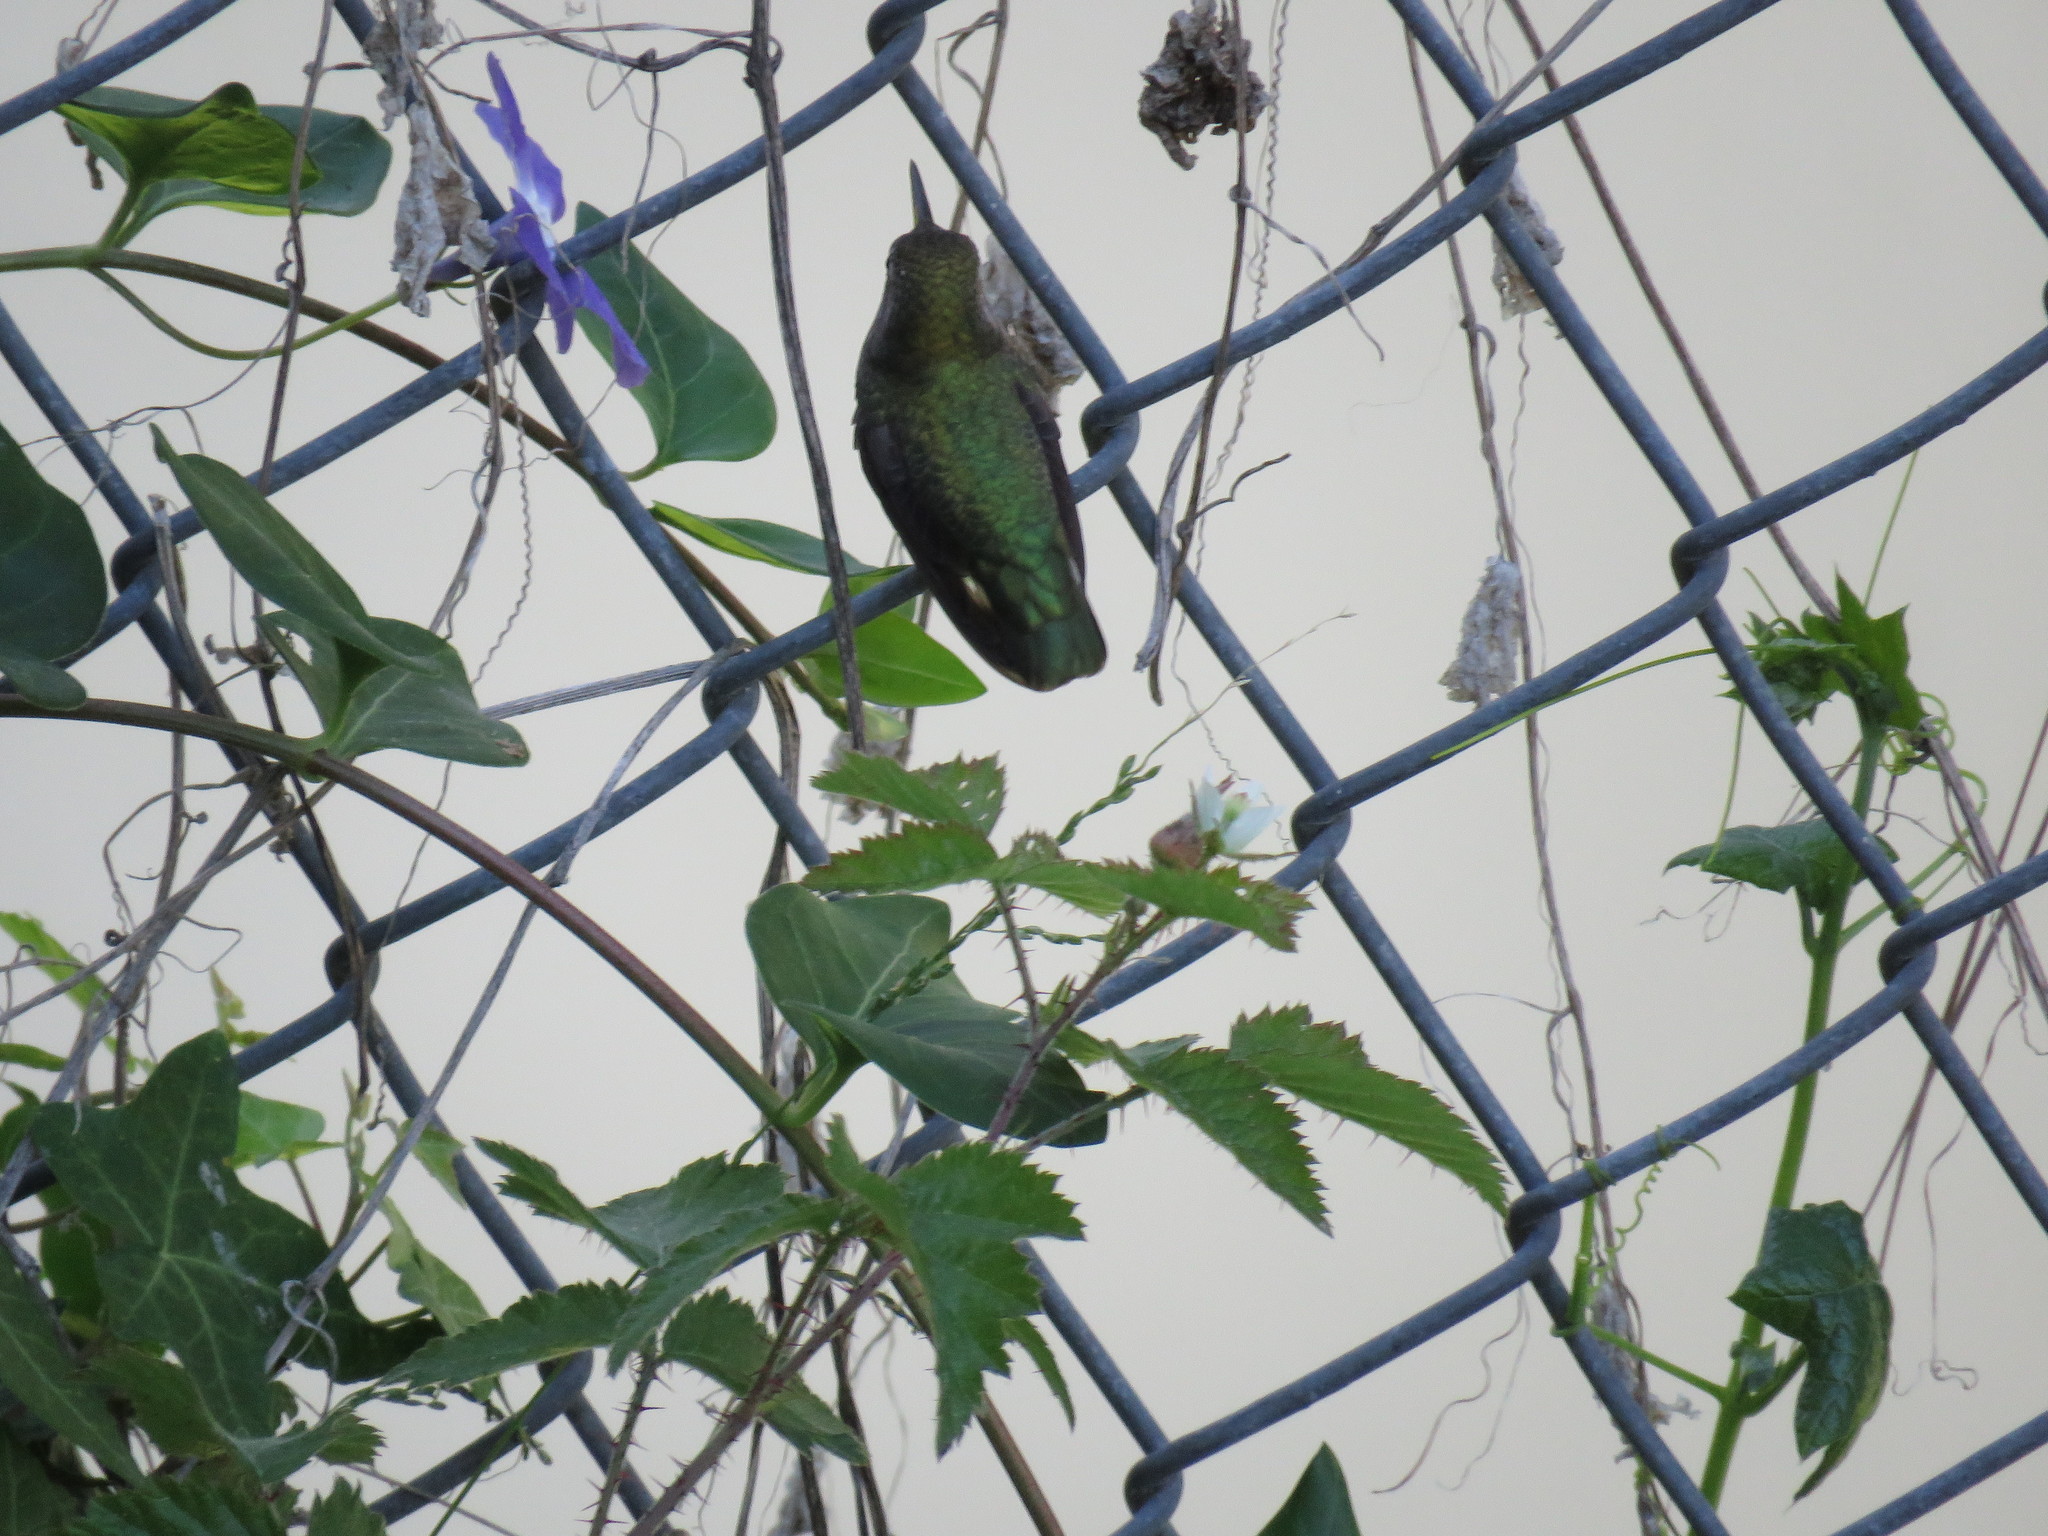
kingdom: Animalia
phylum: Chordata
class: Aves
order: Apodiformes
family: Trochilidae
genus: Calypte
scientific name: Calypte anna
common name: Anna's hummingbird
